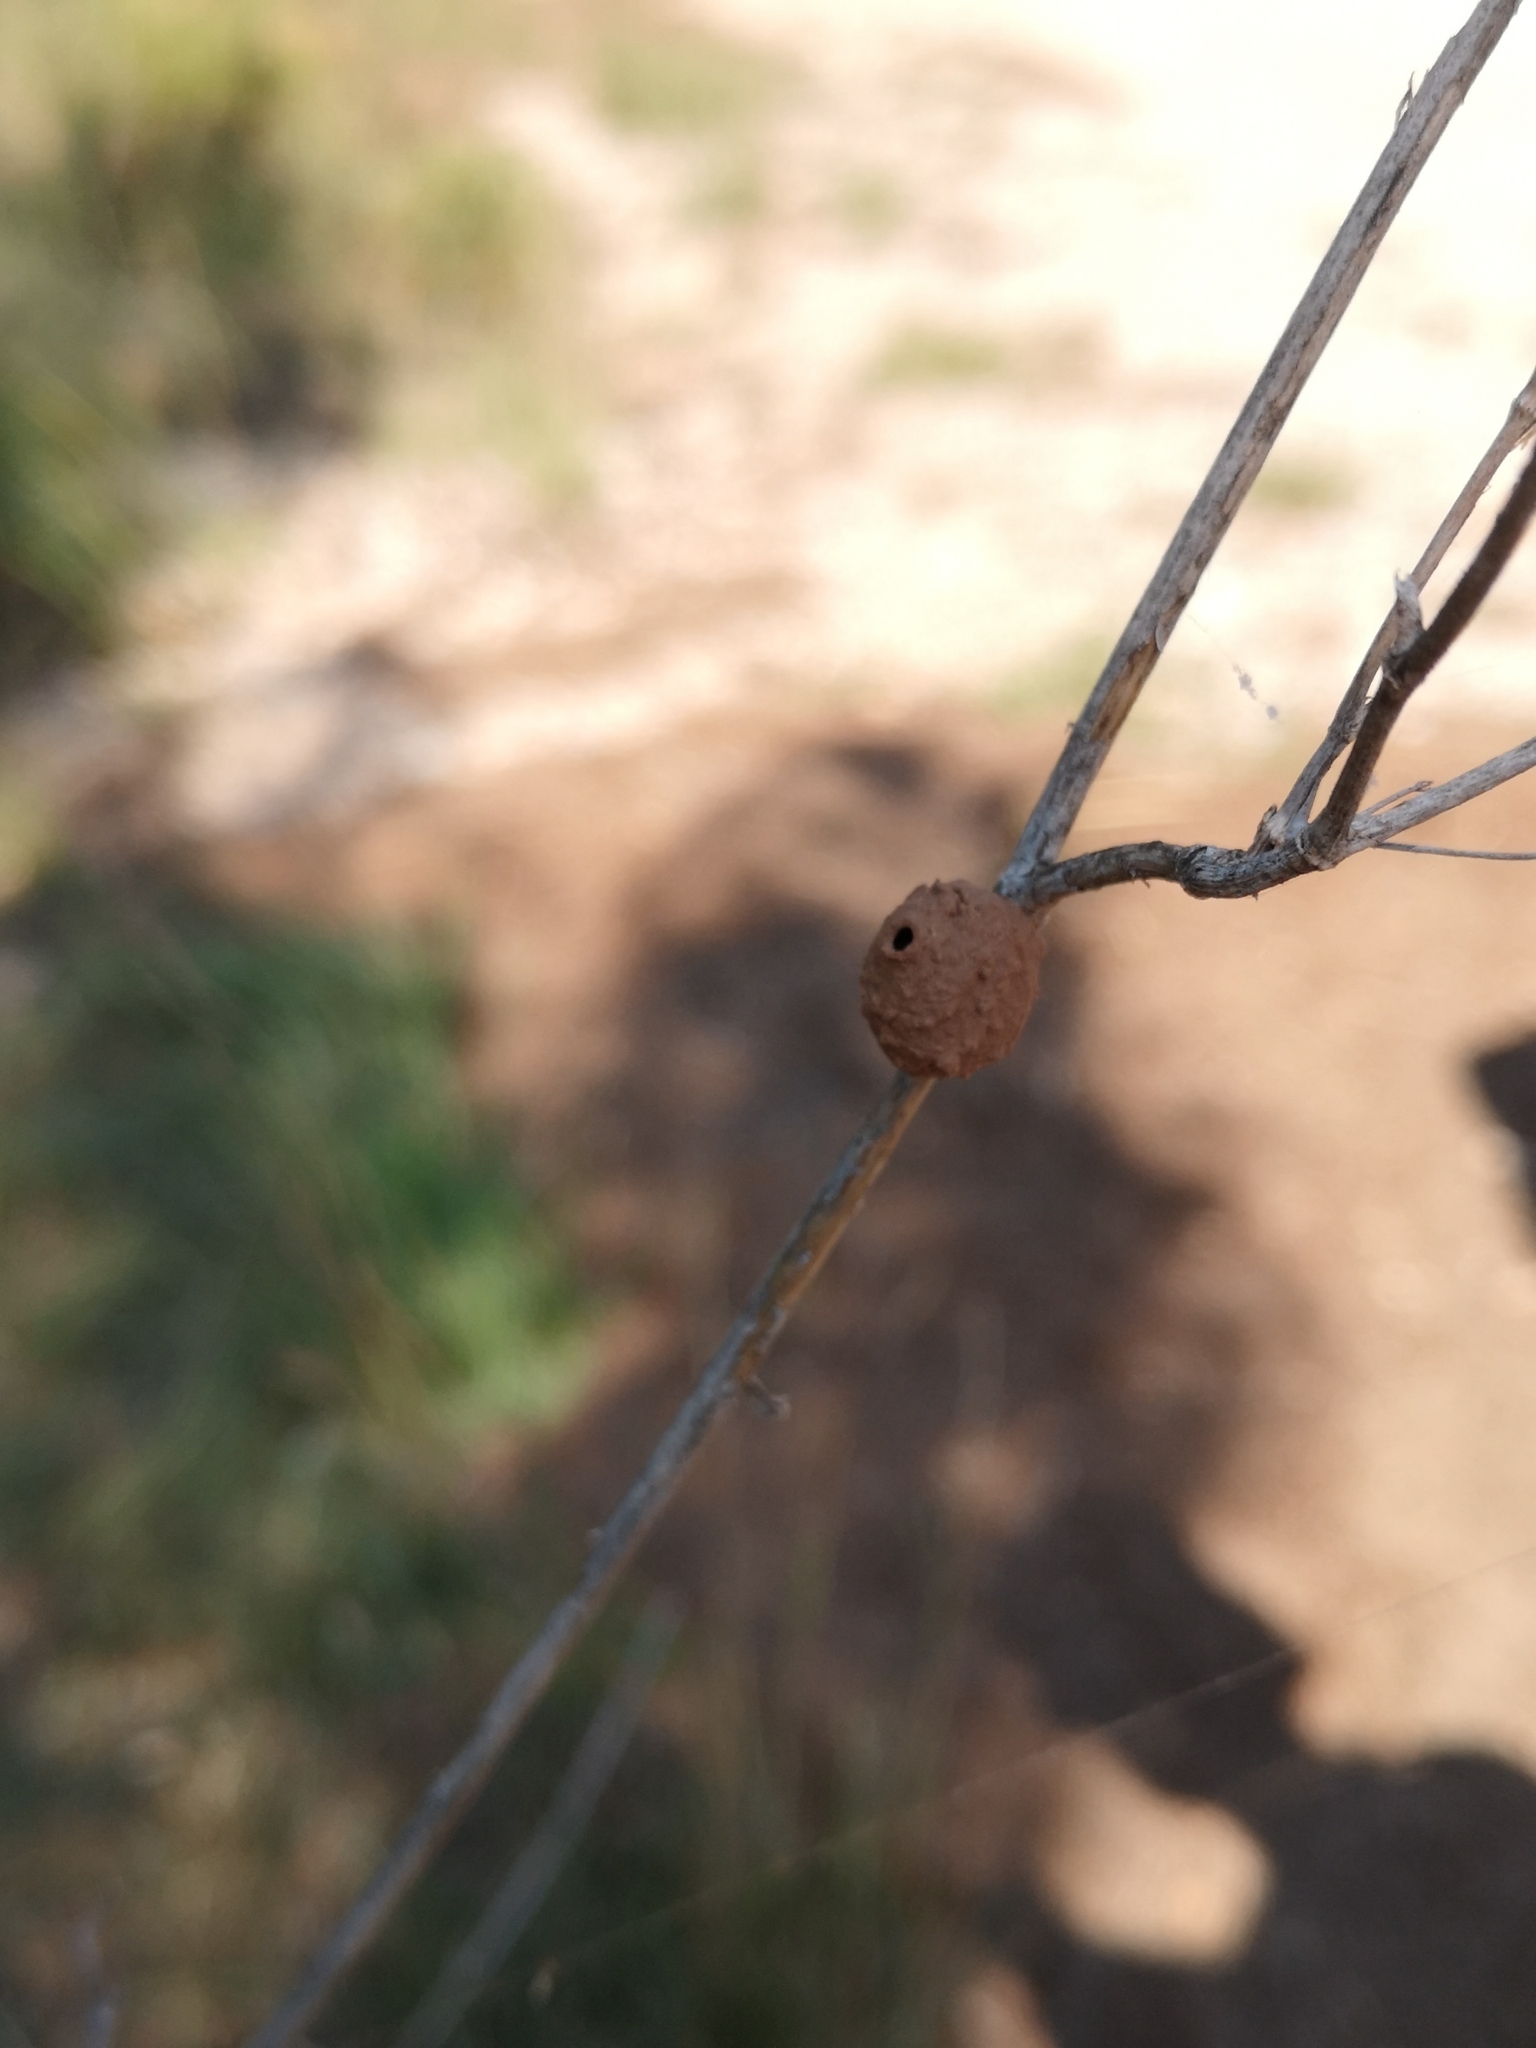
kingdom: Animalia
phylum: Arthropoda
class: Insecta
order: Hymenoptera
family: Eumenidae
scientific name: Eumenidae
